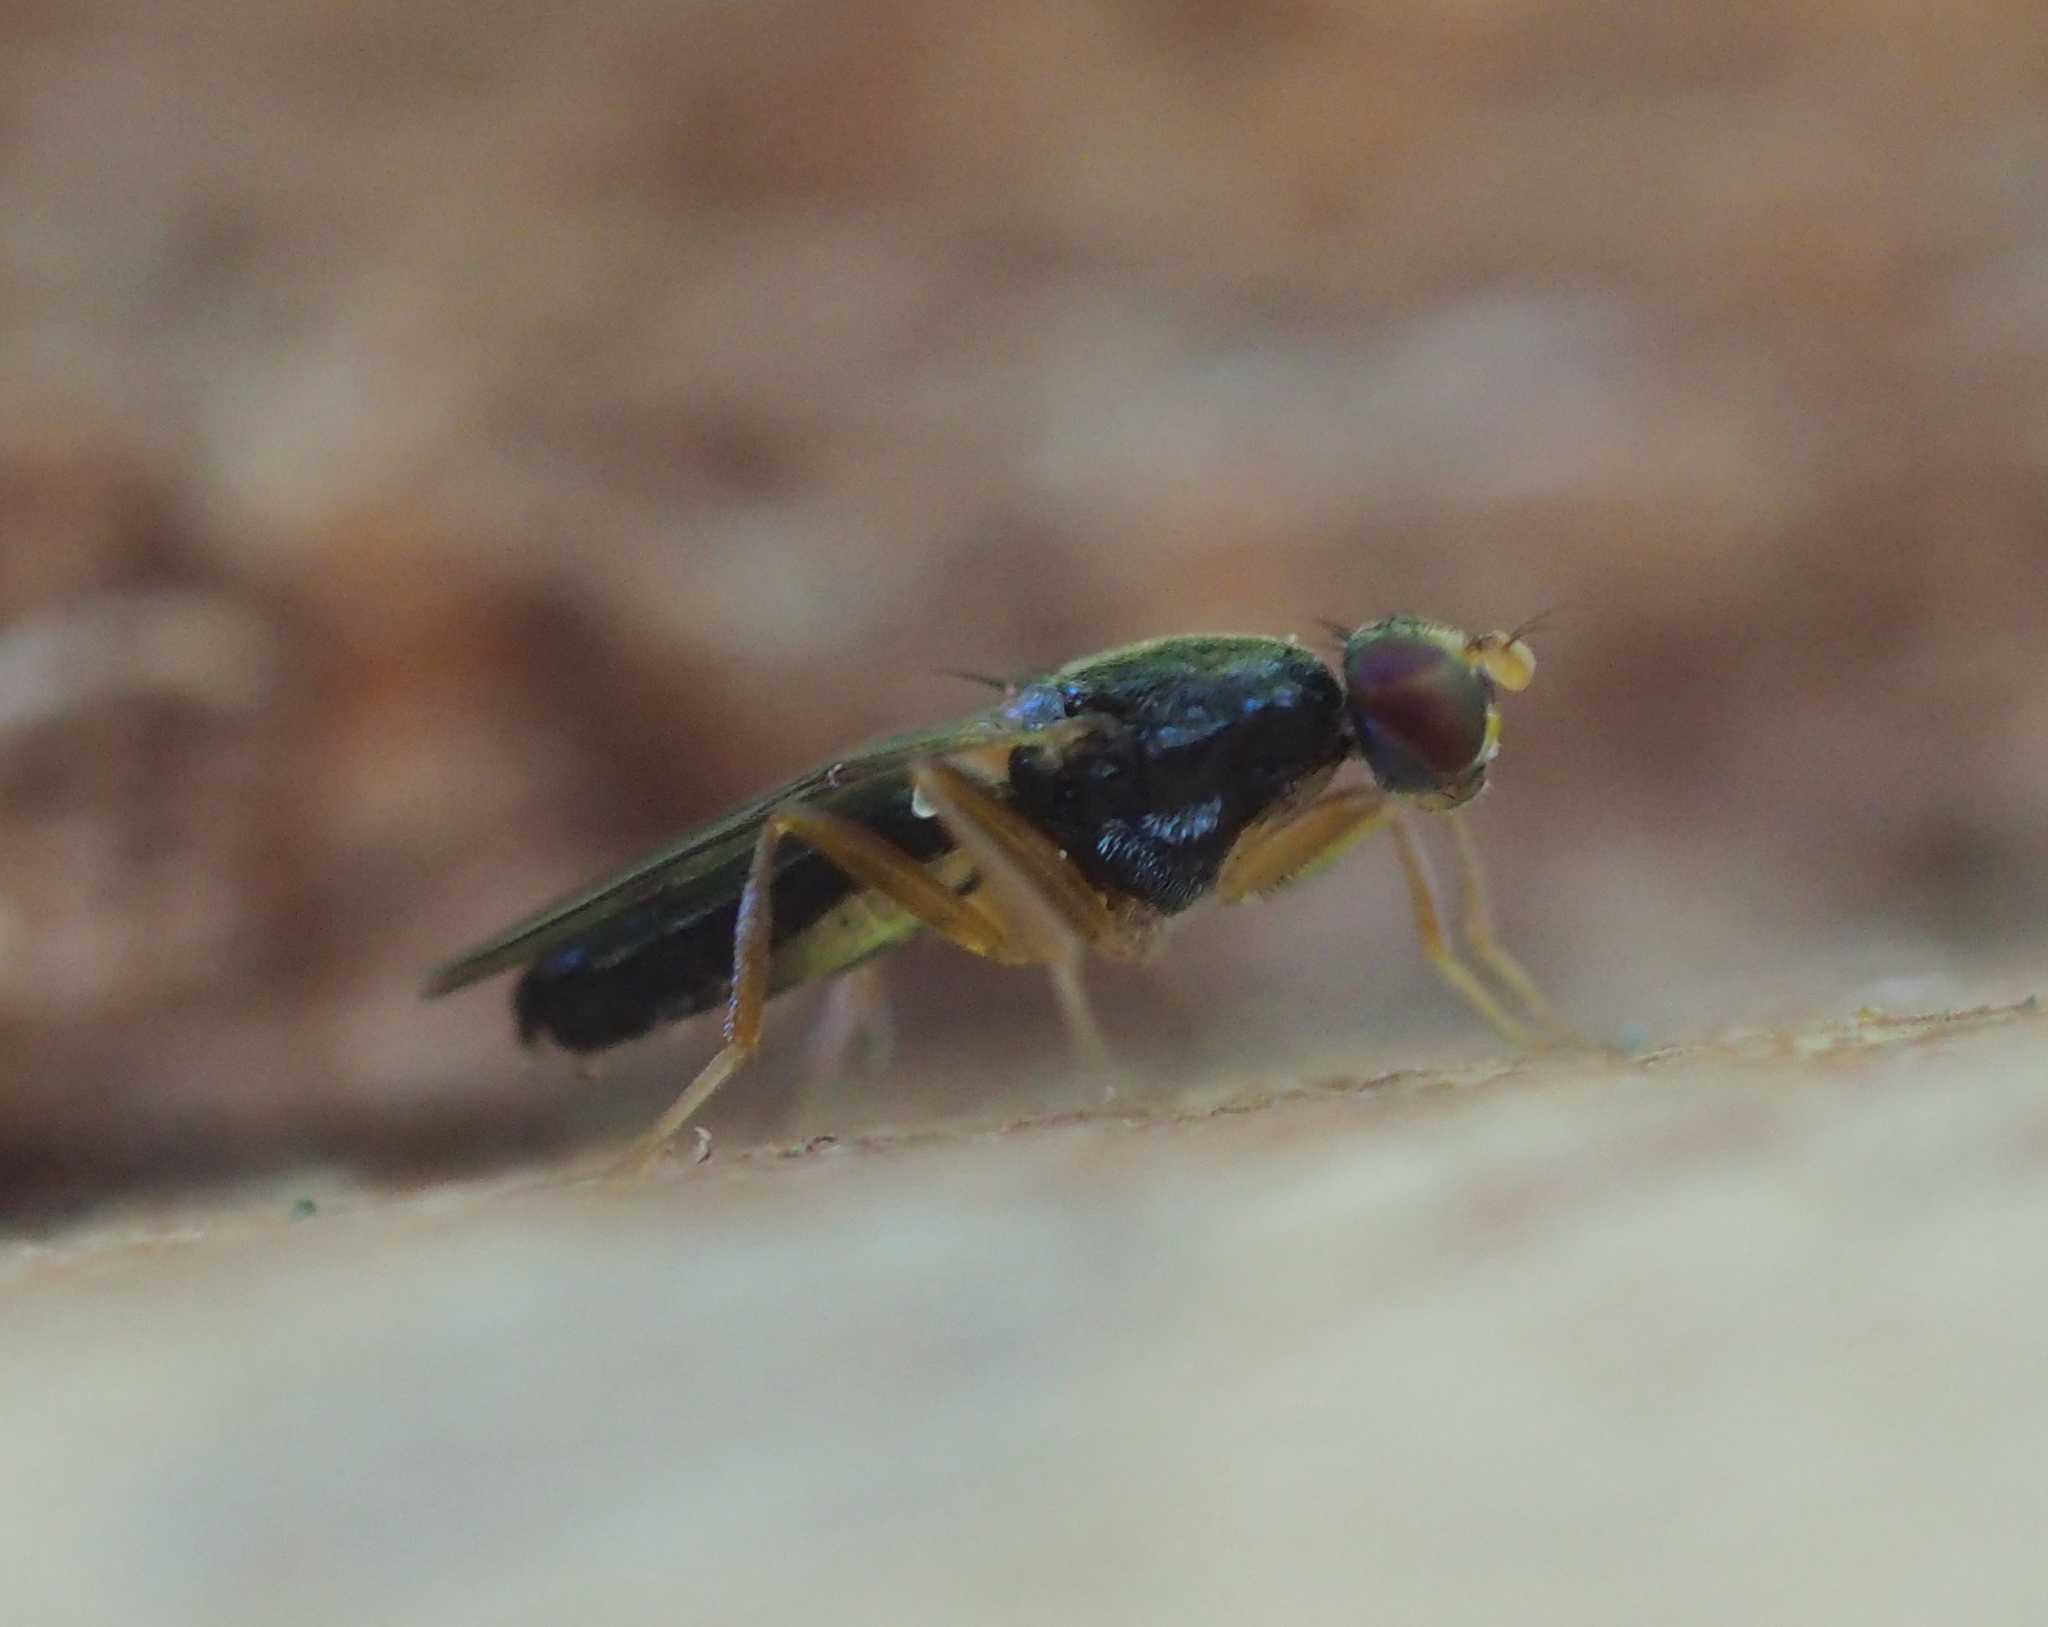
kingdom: Animalia
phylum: Arthropoda
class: Insecta
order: Diptera
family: Psilidae
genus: Chyliza
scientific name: Chyliza leptogaster
